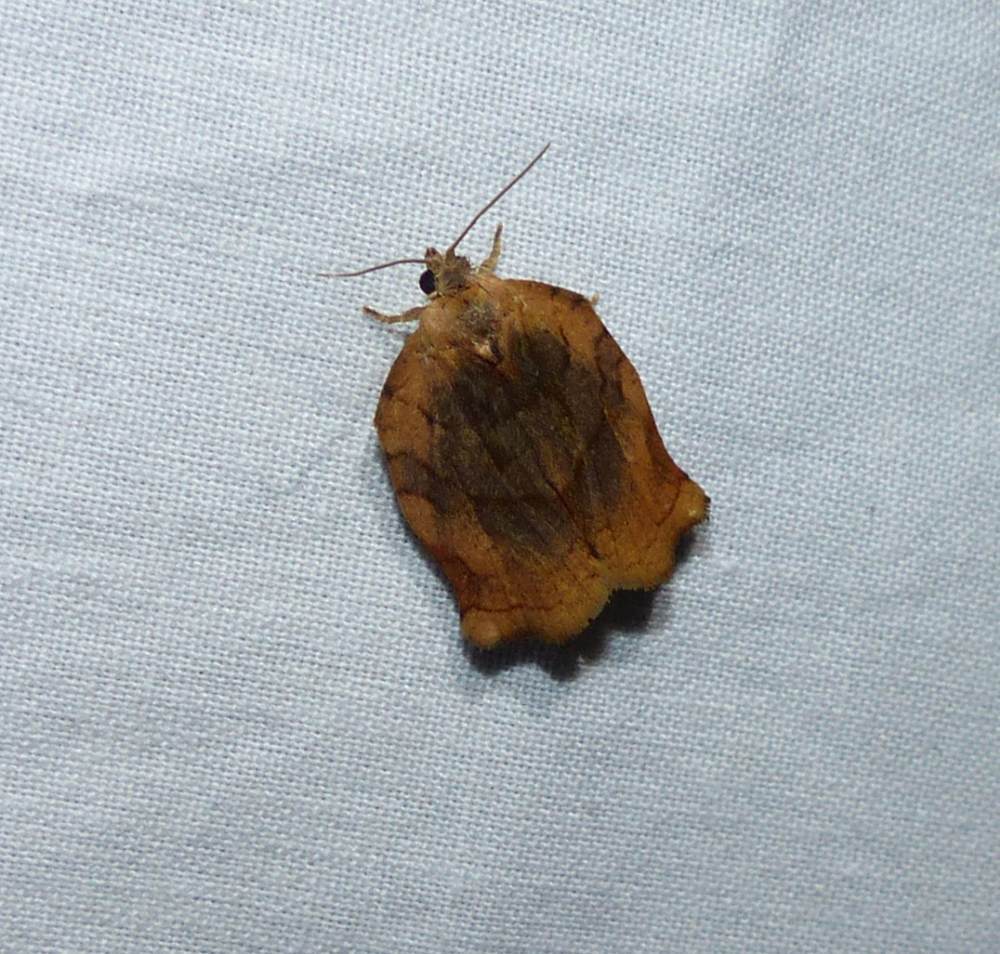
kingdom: Animalia
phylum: Arthropoda
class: Insecta
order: Lepidoptera
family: Tortricidae
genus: Archips
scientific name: Archips purpurana
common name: Omnivorous leafroller
